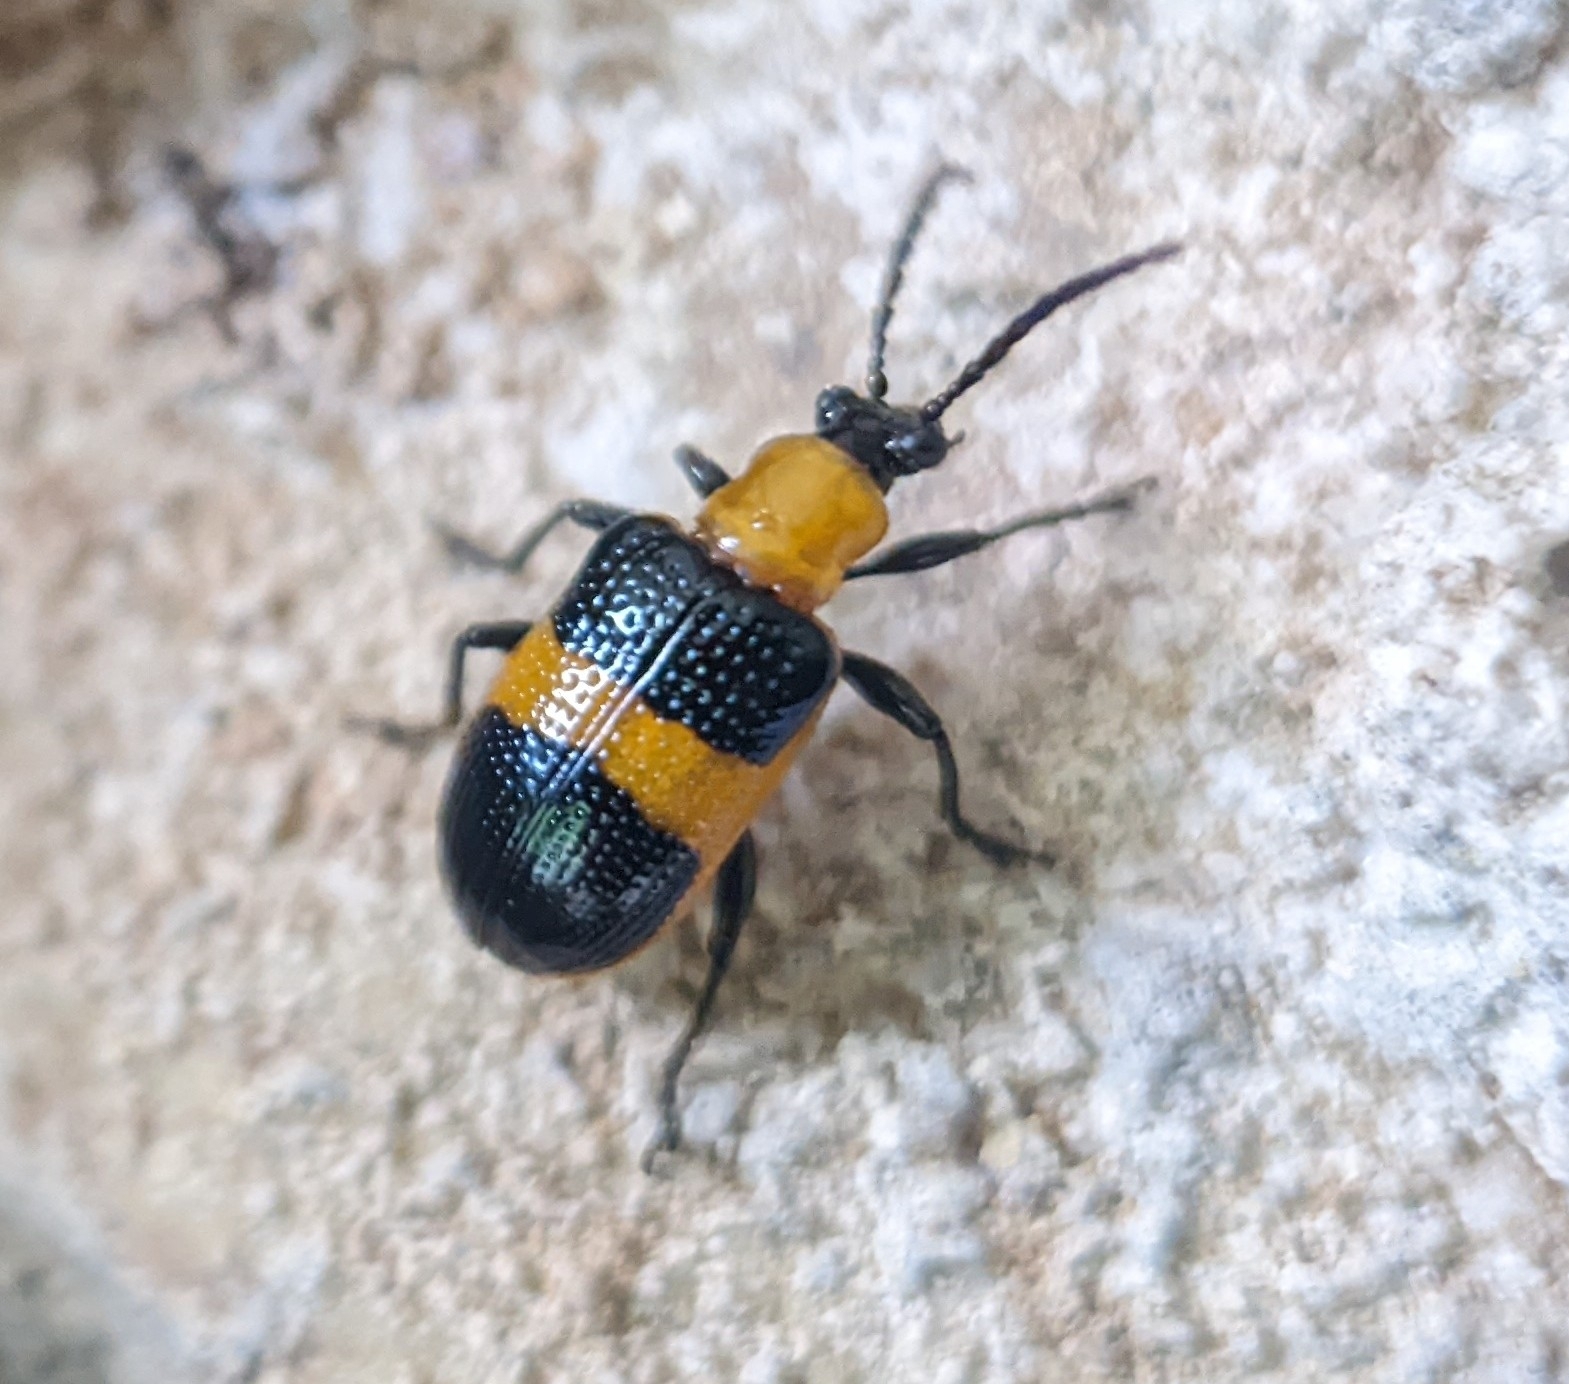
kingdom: Animalia
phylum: Arthropoda
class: Insecta
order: Coleoptera
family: Chrysomelidae
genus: Lema
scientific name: Lema solani
